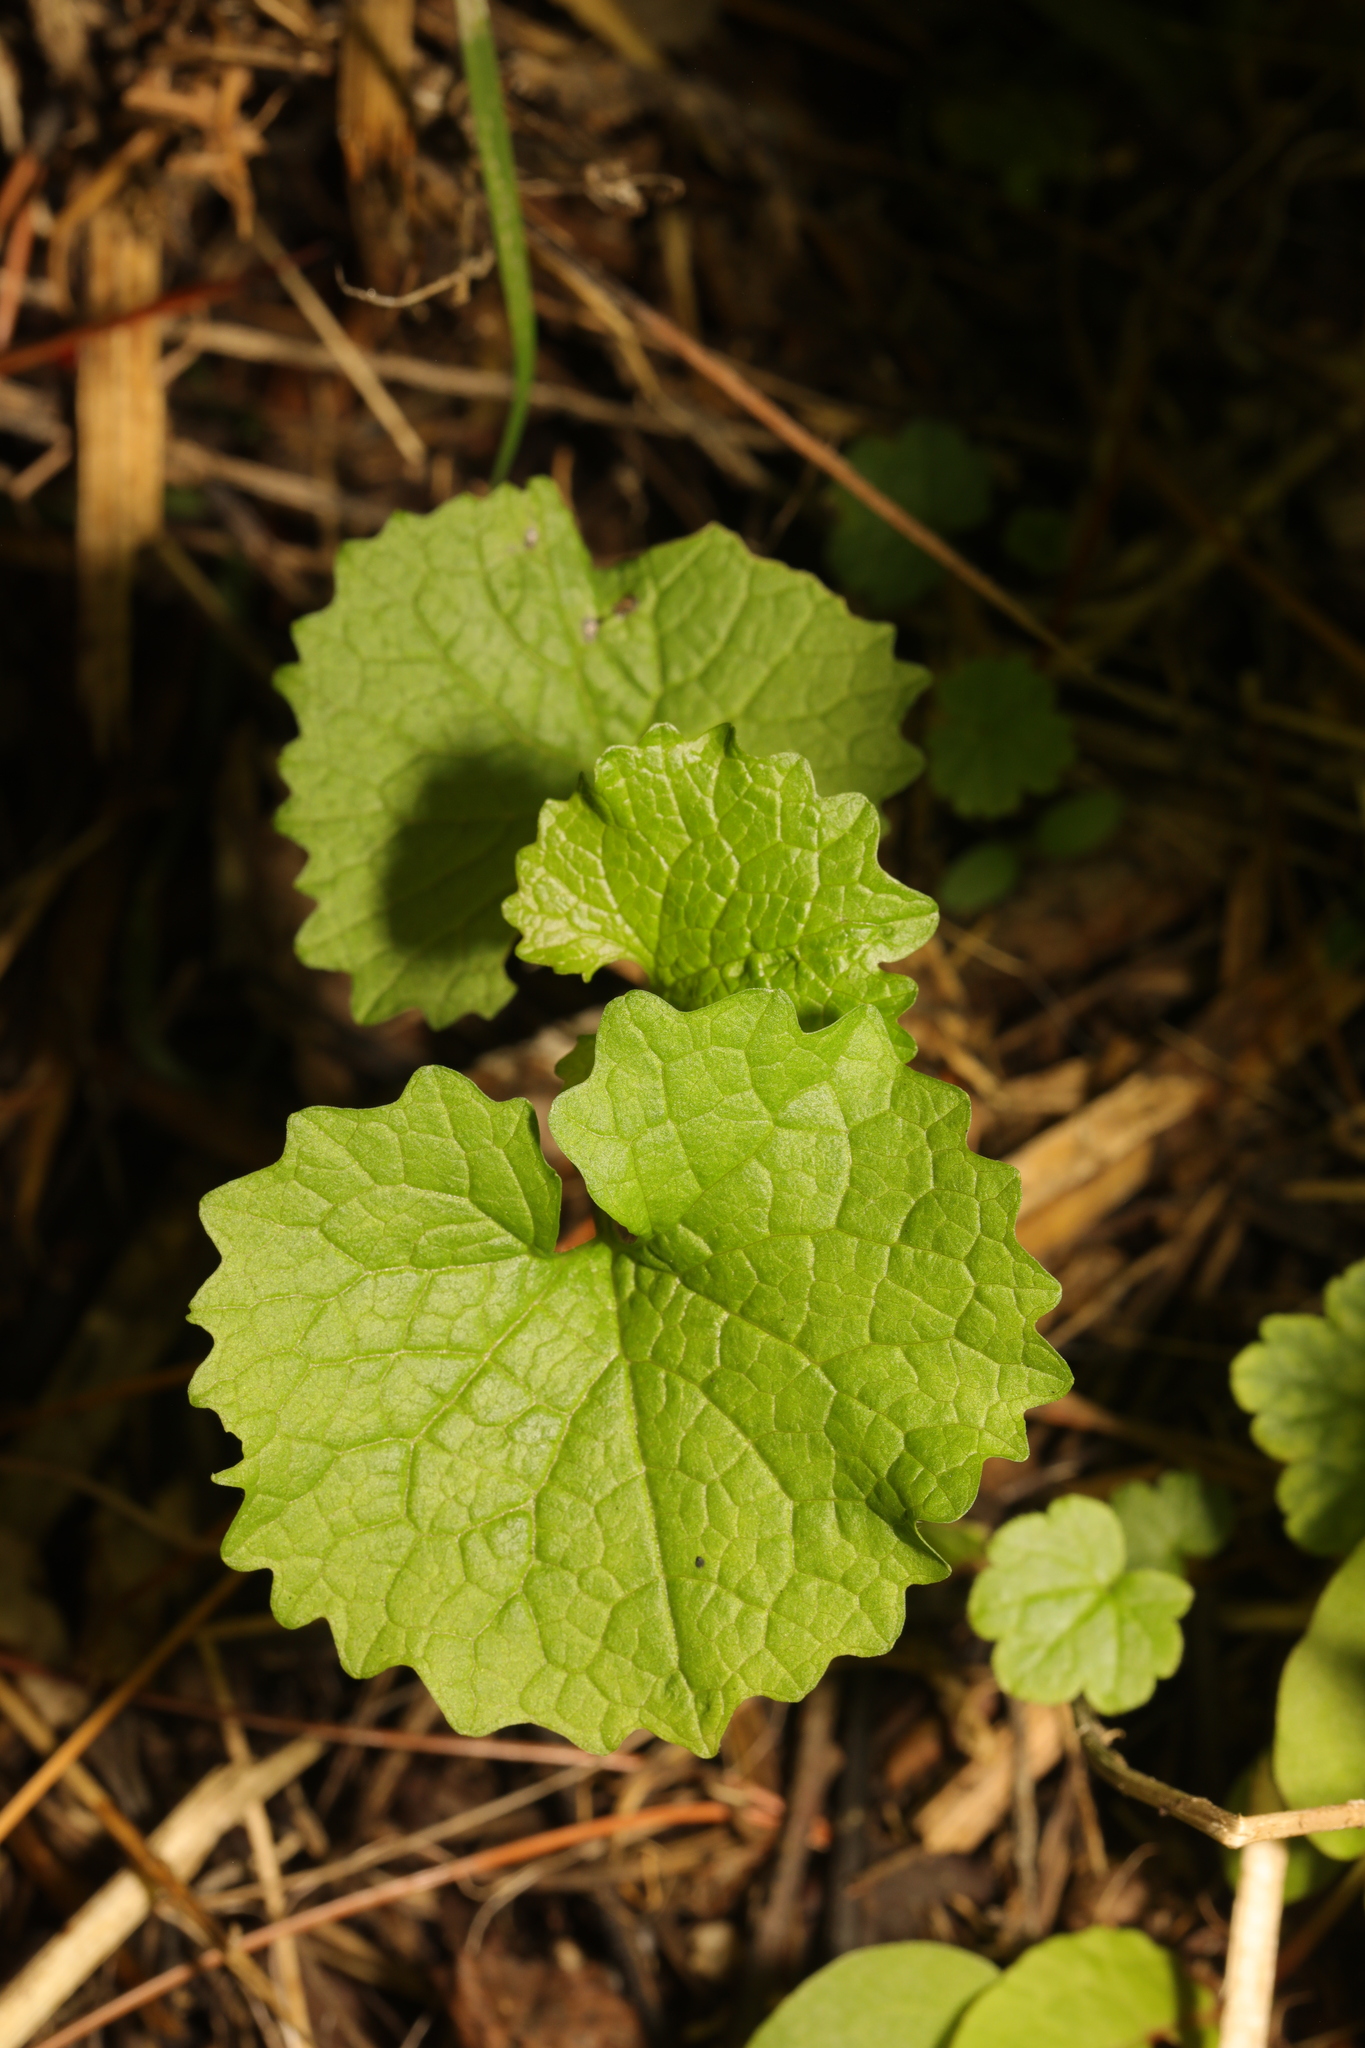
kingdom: Plantae
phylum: Tracheophyta
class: Magnoliopsida
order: Brassicales
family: Brassicaceae
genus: Alliaria
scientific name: Alliaria petiolata
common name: Garlic mustard
